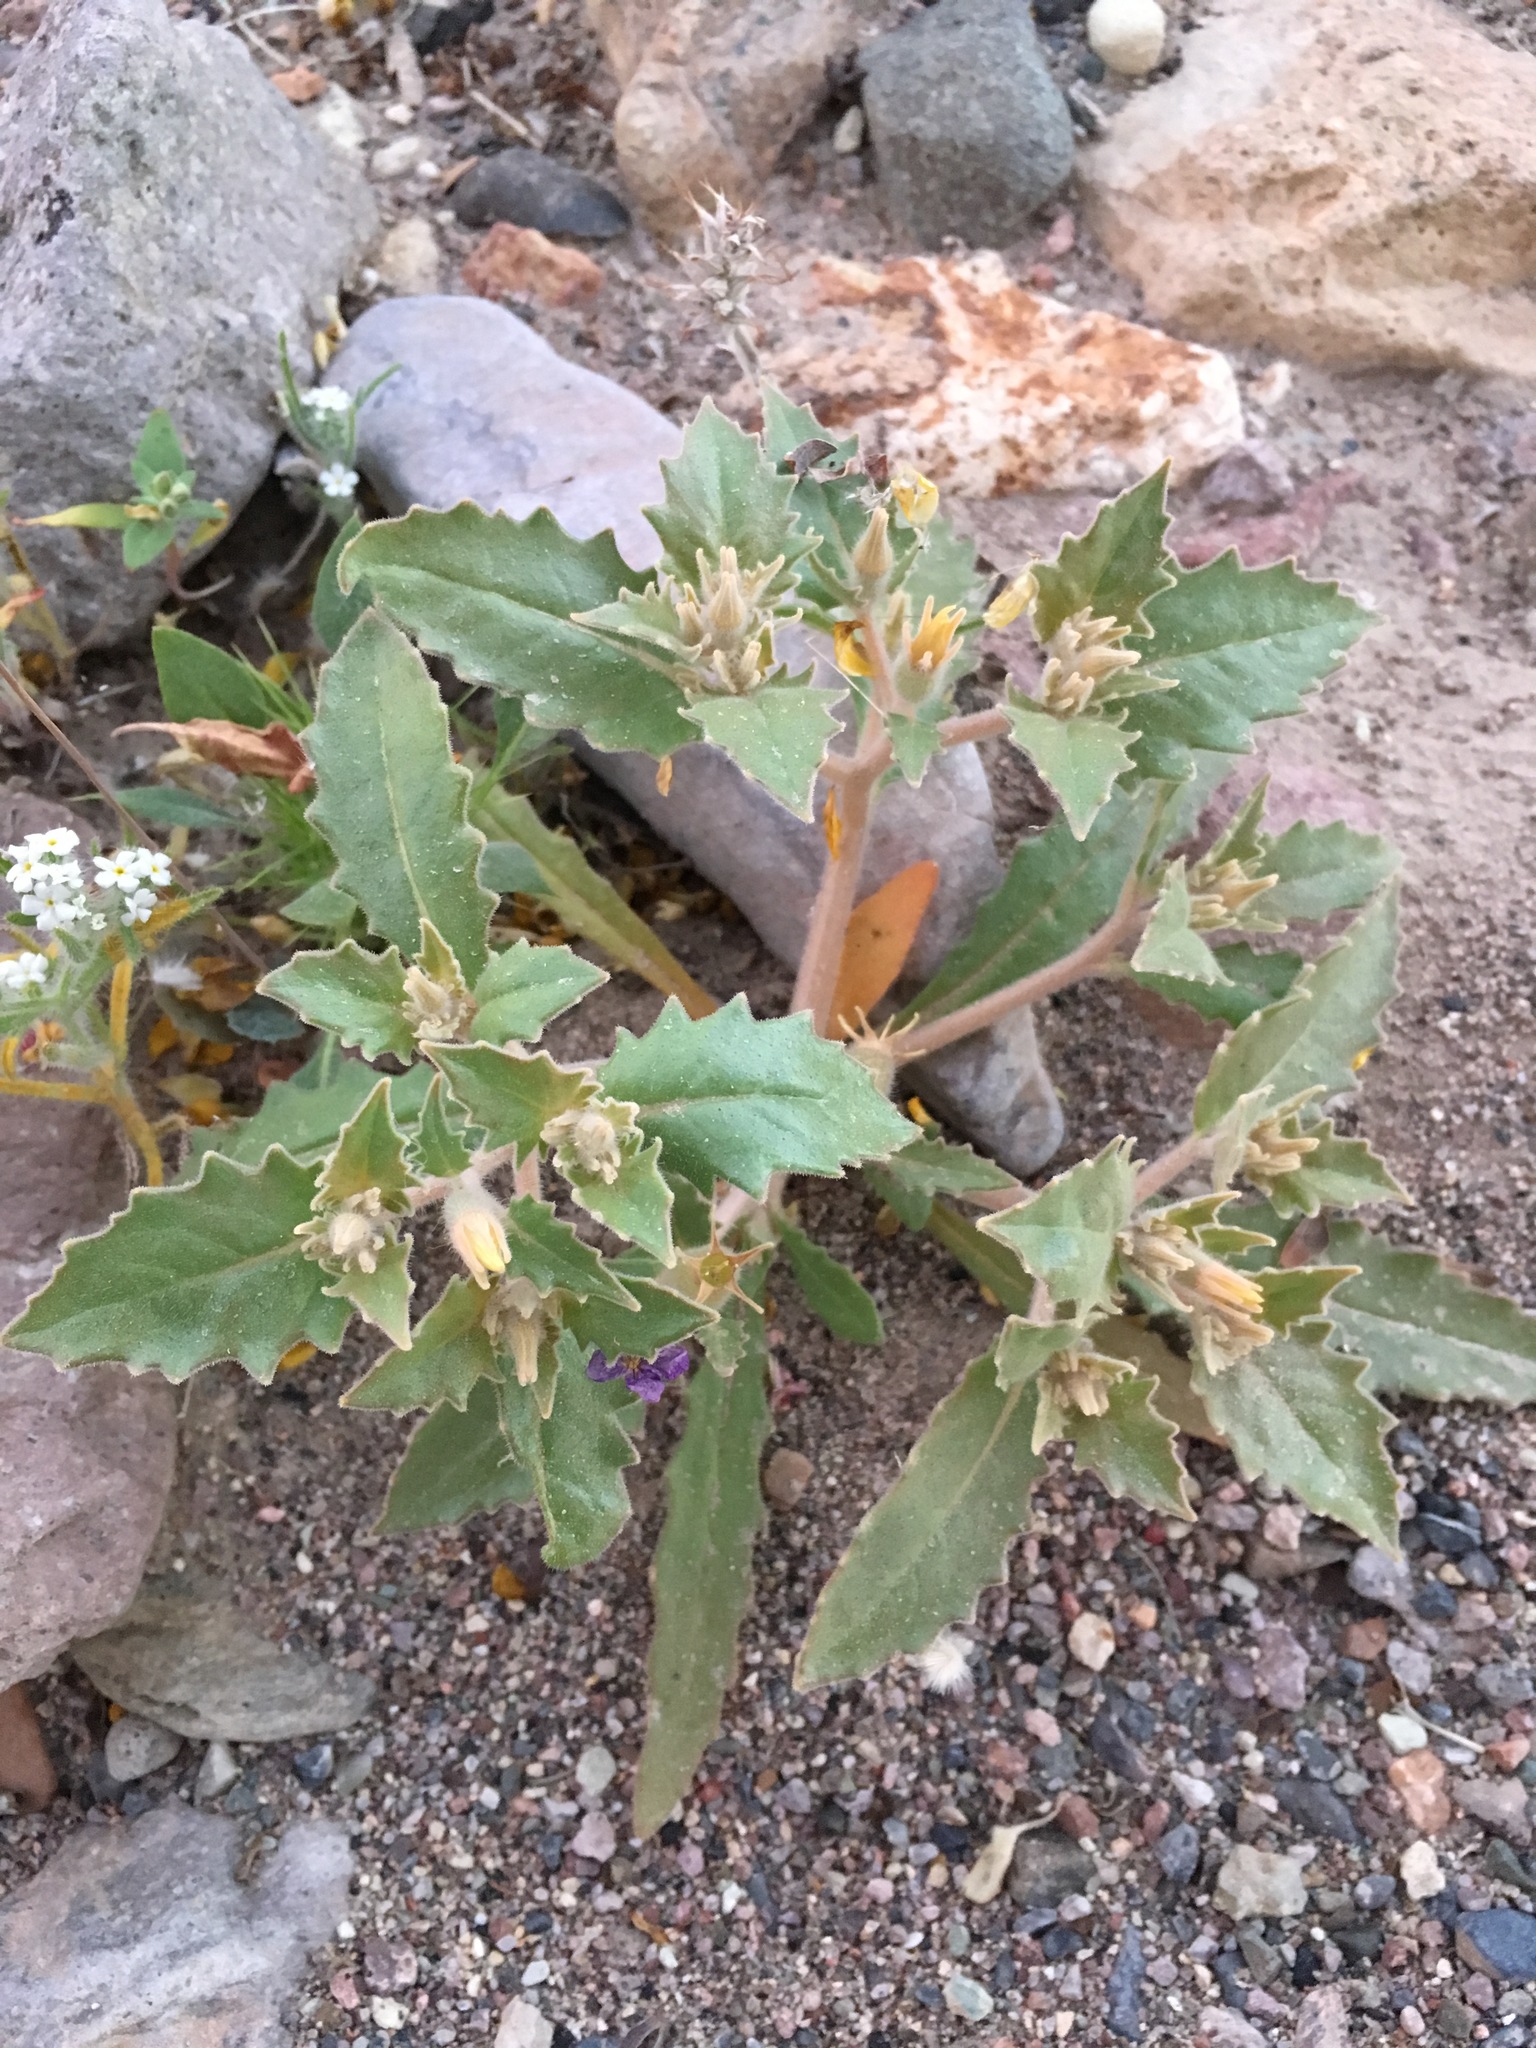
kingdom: Plantae
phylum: Tracheophyta
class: Magnoliopsida
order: Cornales
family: Loasaceae
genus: Mentzelia
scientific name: Mentzelia reflexa
